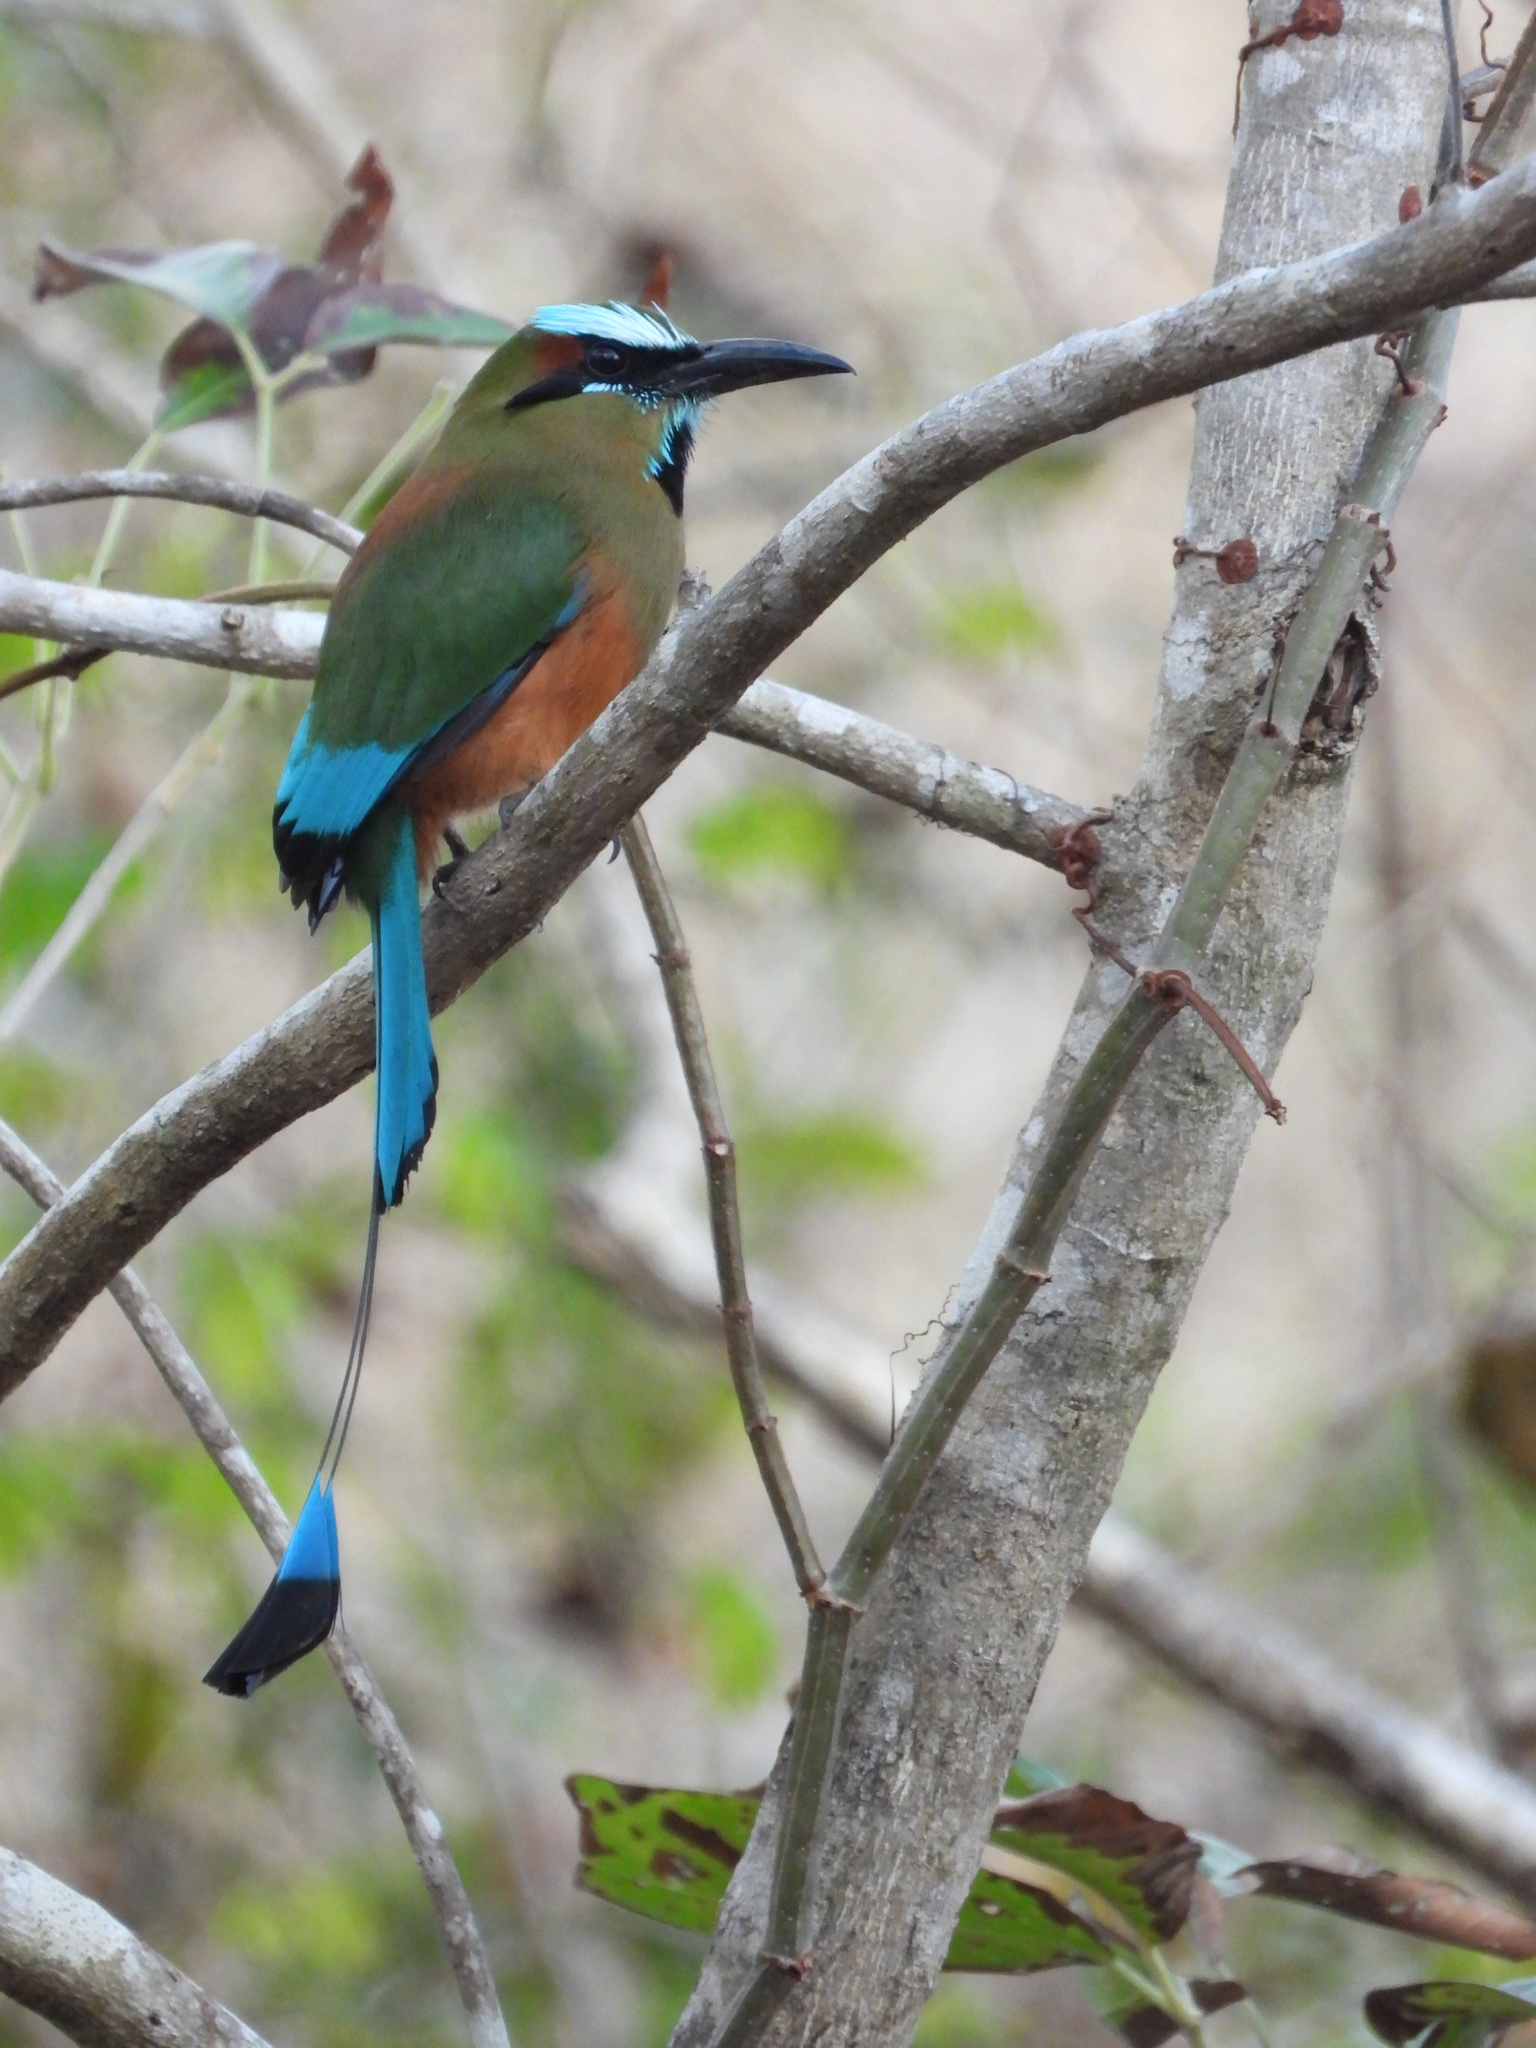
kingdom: Animalia
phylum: Chordata
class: Aves
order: Coraciiformes
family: Momotidae
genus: Eumomota
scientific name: Eumomota superciliosa
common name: Turquoise-browed motmot
